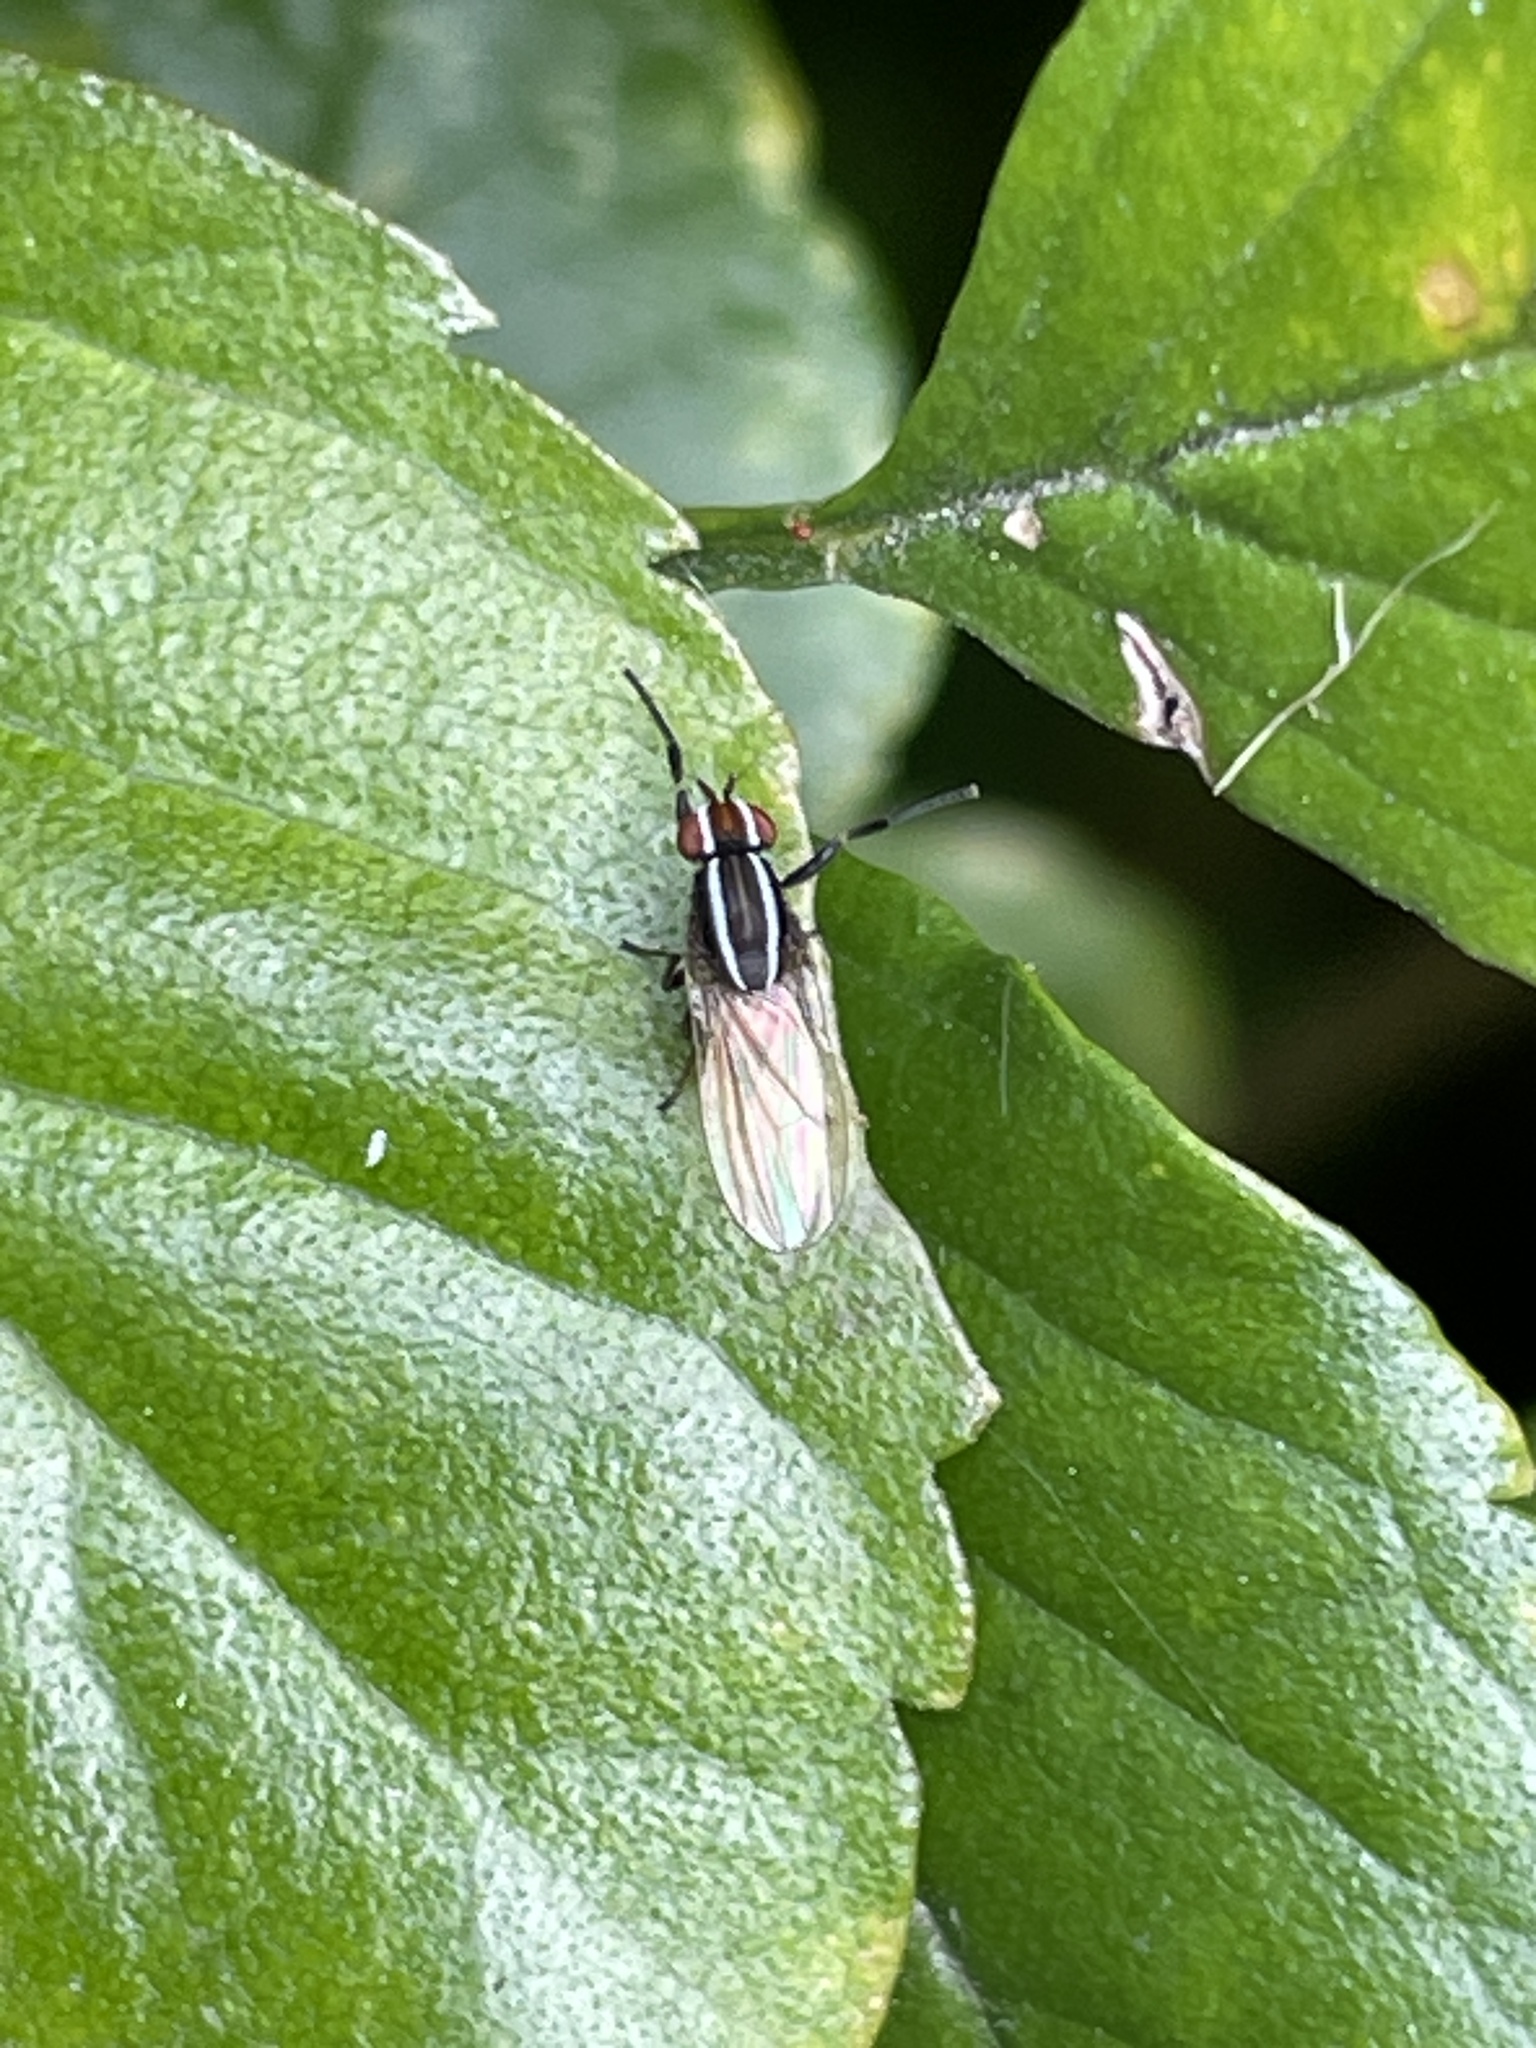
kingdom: Animalia
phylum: Arthropoda
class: Insecta
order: Diptera
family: Lauxaniidae
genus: Poecilohetaerus
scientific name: Poecilohetaerus schineri
